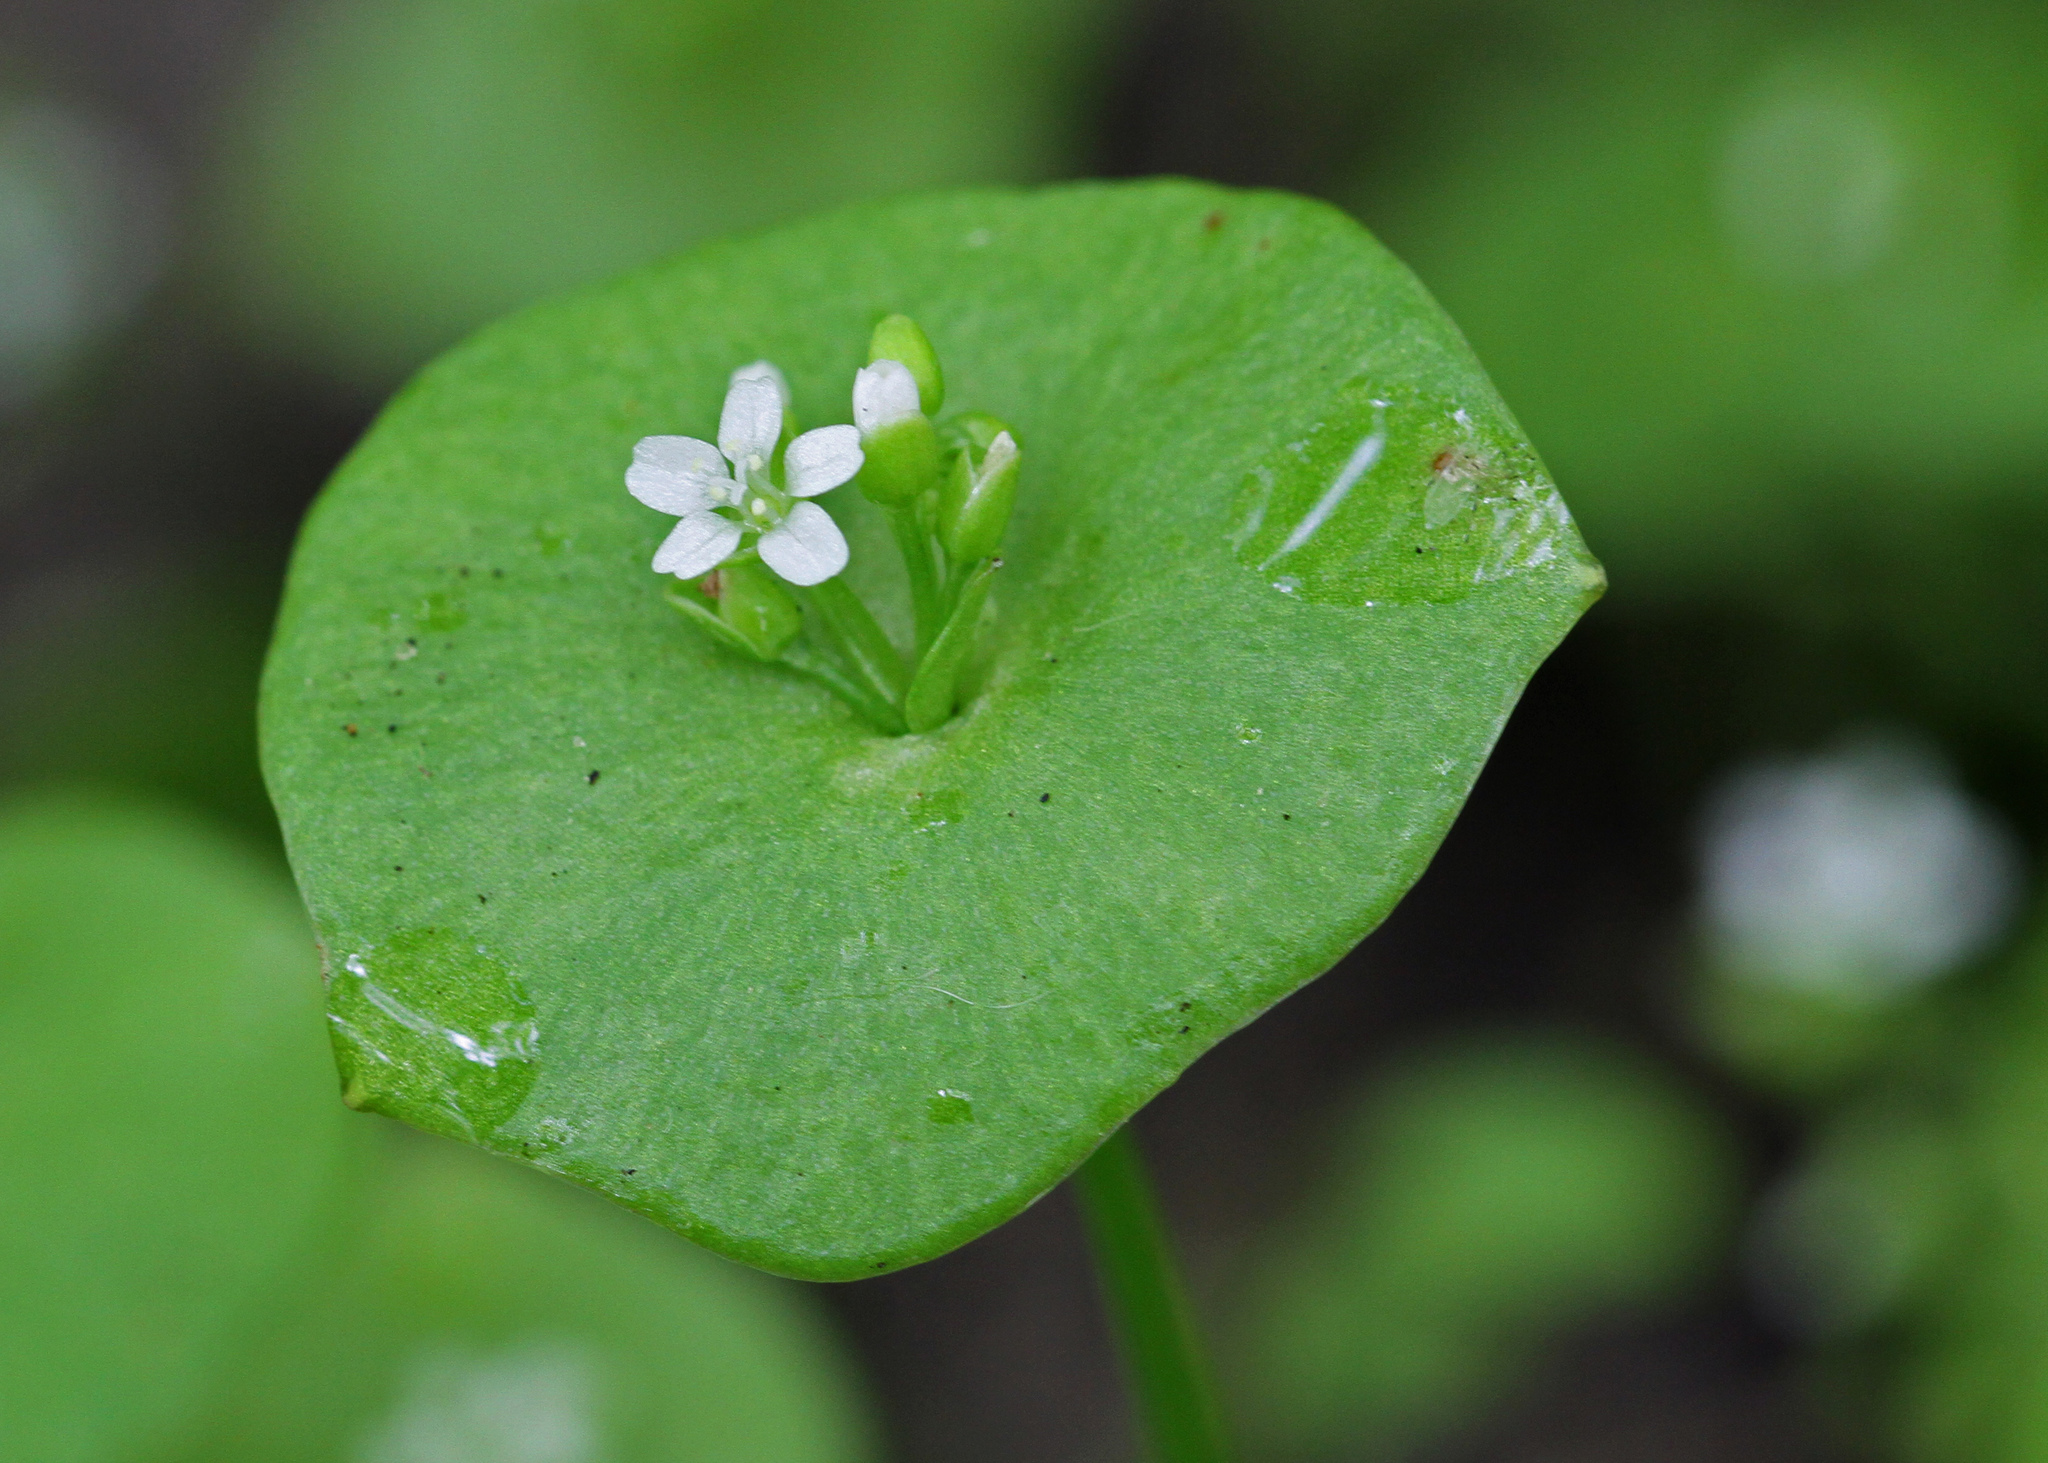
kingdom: Plantae
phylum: Tracheophyta
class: Magnoliopsida
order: Caryophyllales
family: Montiaceae
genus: Claytonia
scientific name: Claytonia perfoliata
